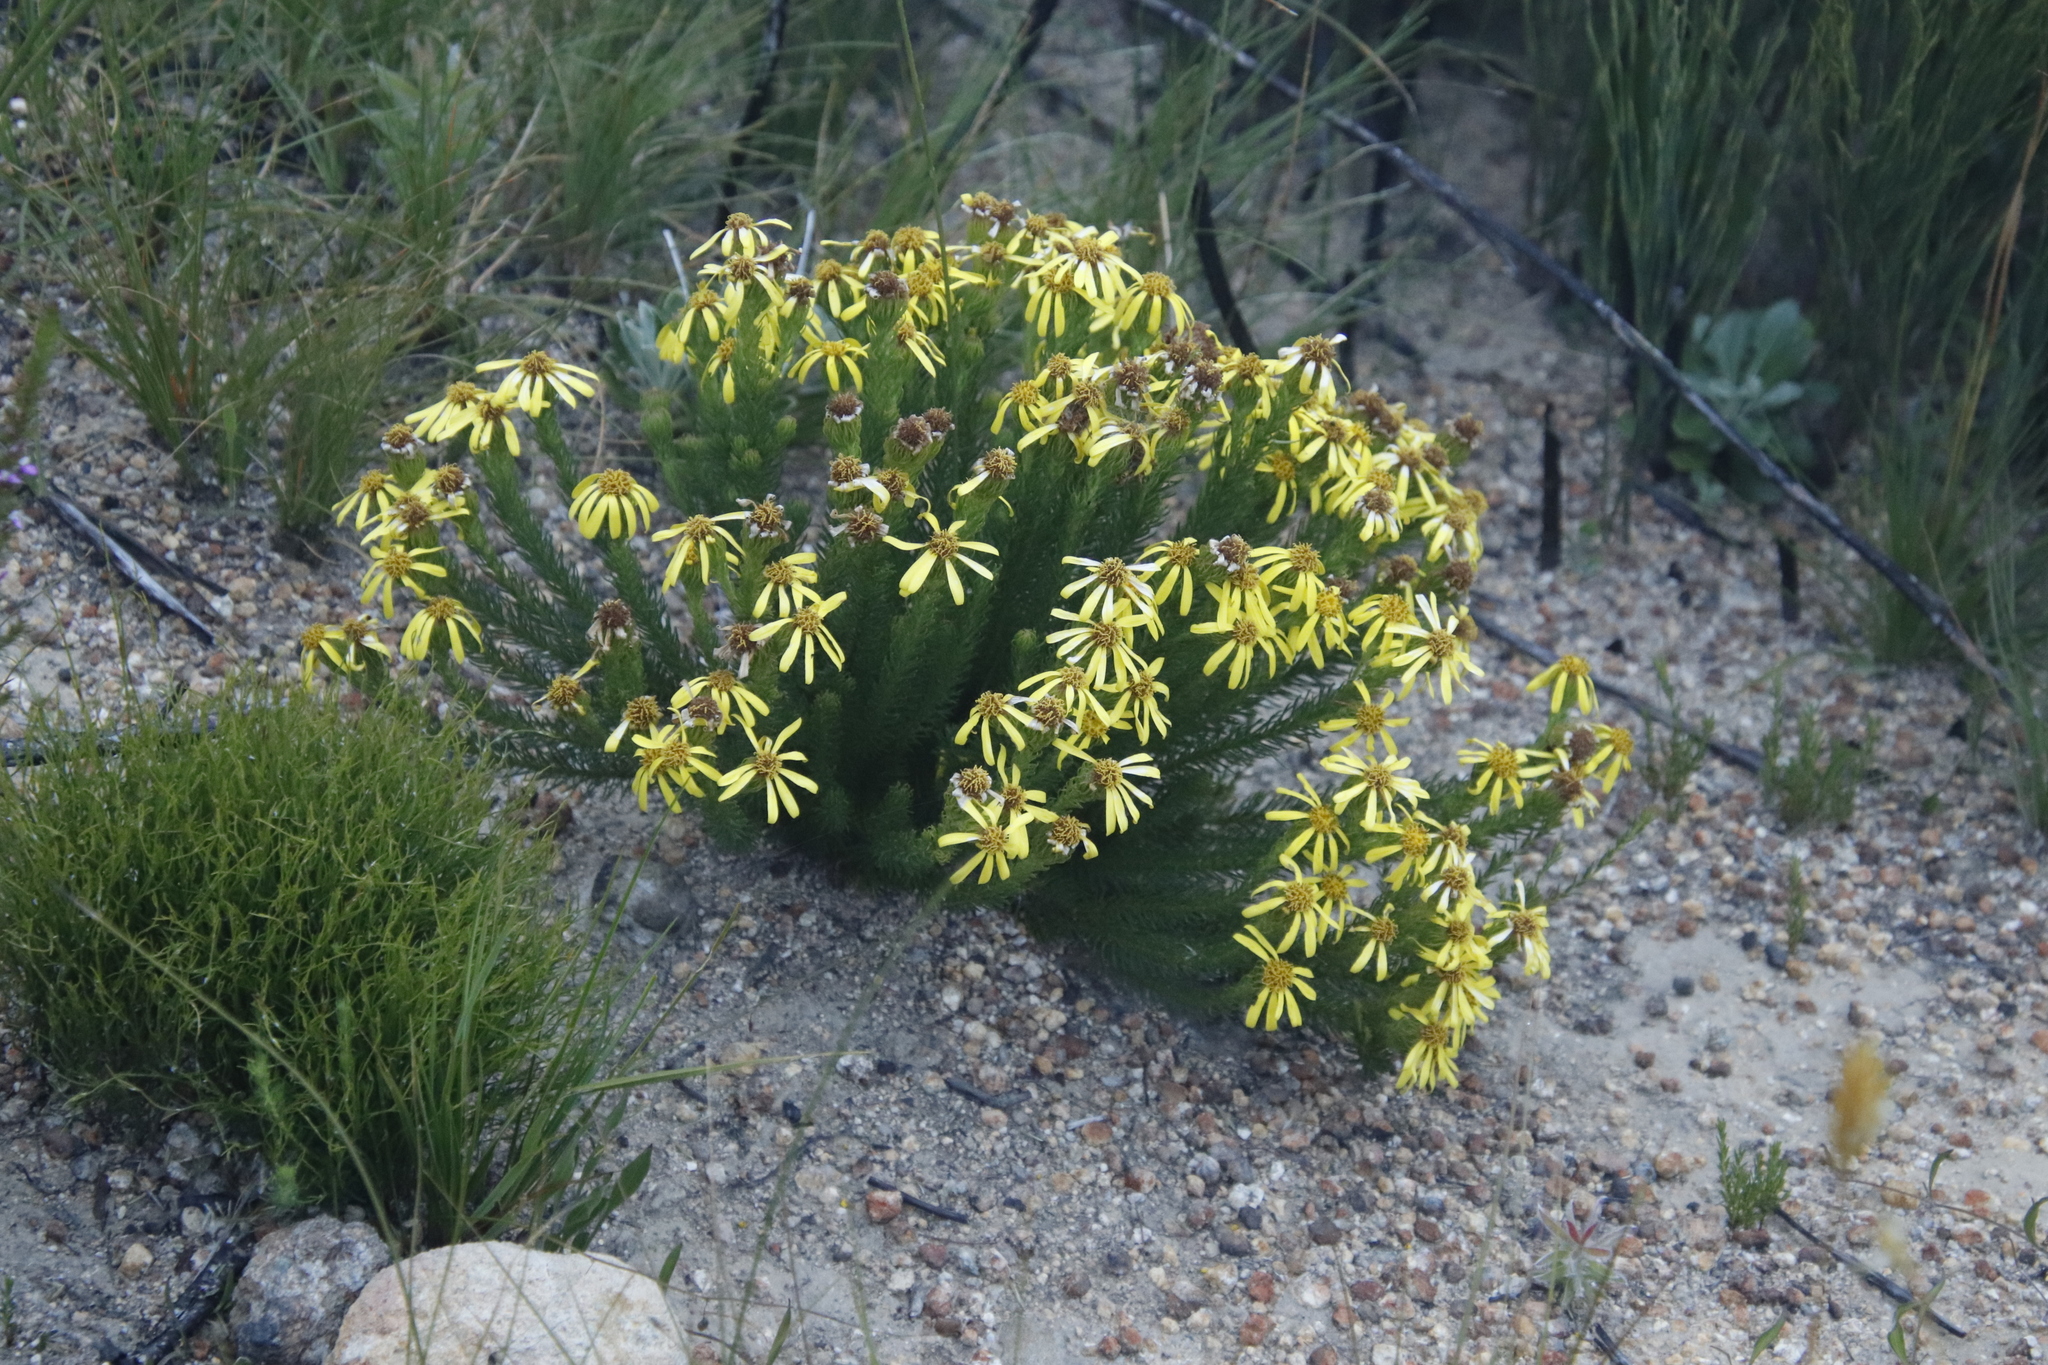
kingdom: Plantae
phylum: Tracheophyta
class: Magnoliopsida
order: Asterales
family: Asteraceae
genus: Senecio
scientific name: Senecio pinifolius
